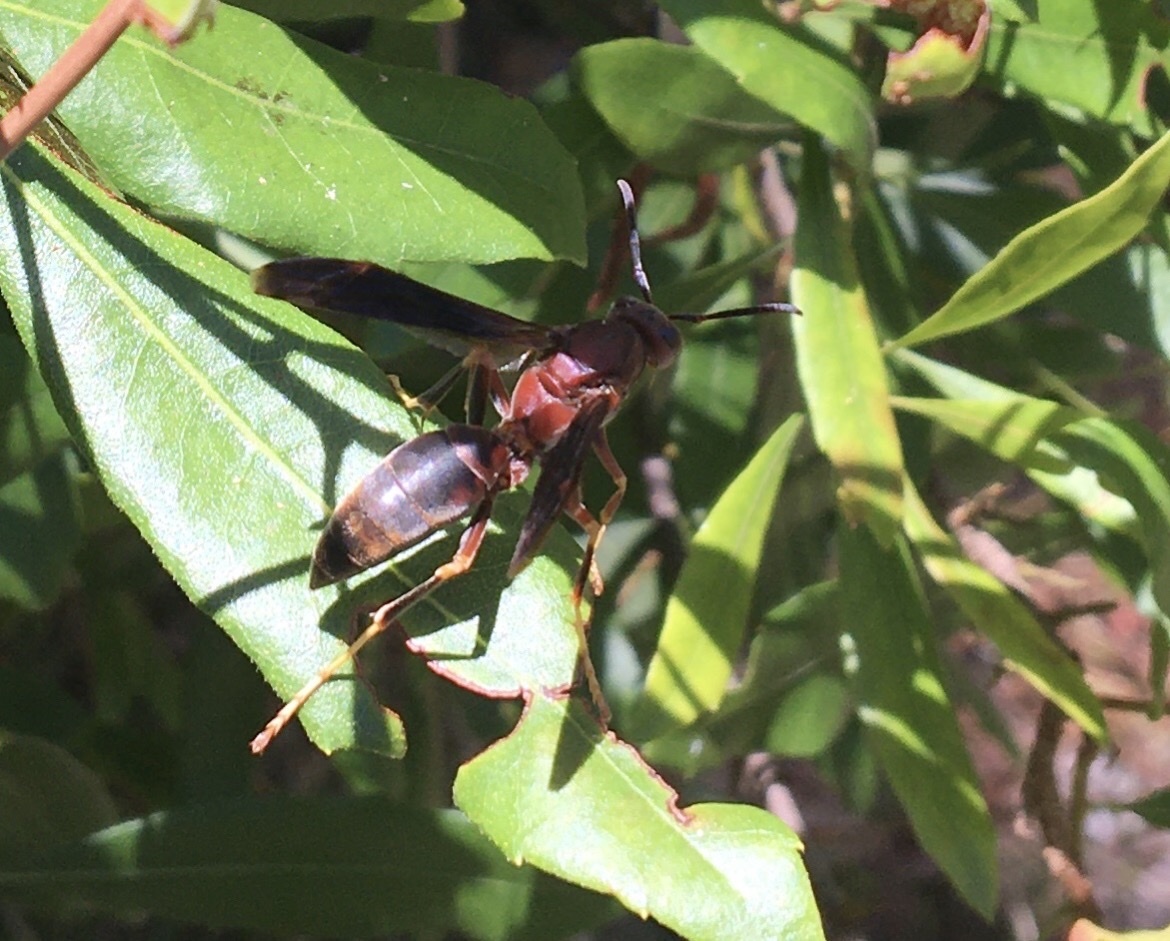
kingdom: Animalia
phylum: Arthropoda
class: Insecta
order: Hymenoptera
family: Eumenidae
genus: Polistes
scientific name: Polistes metricus
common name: Metric paper wasp
